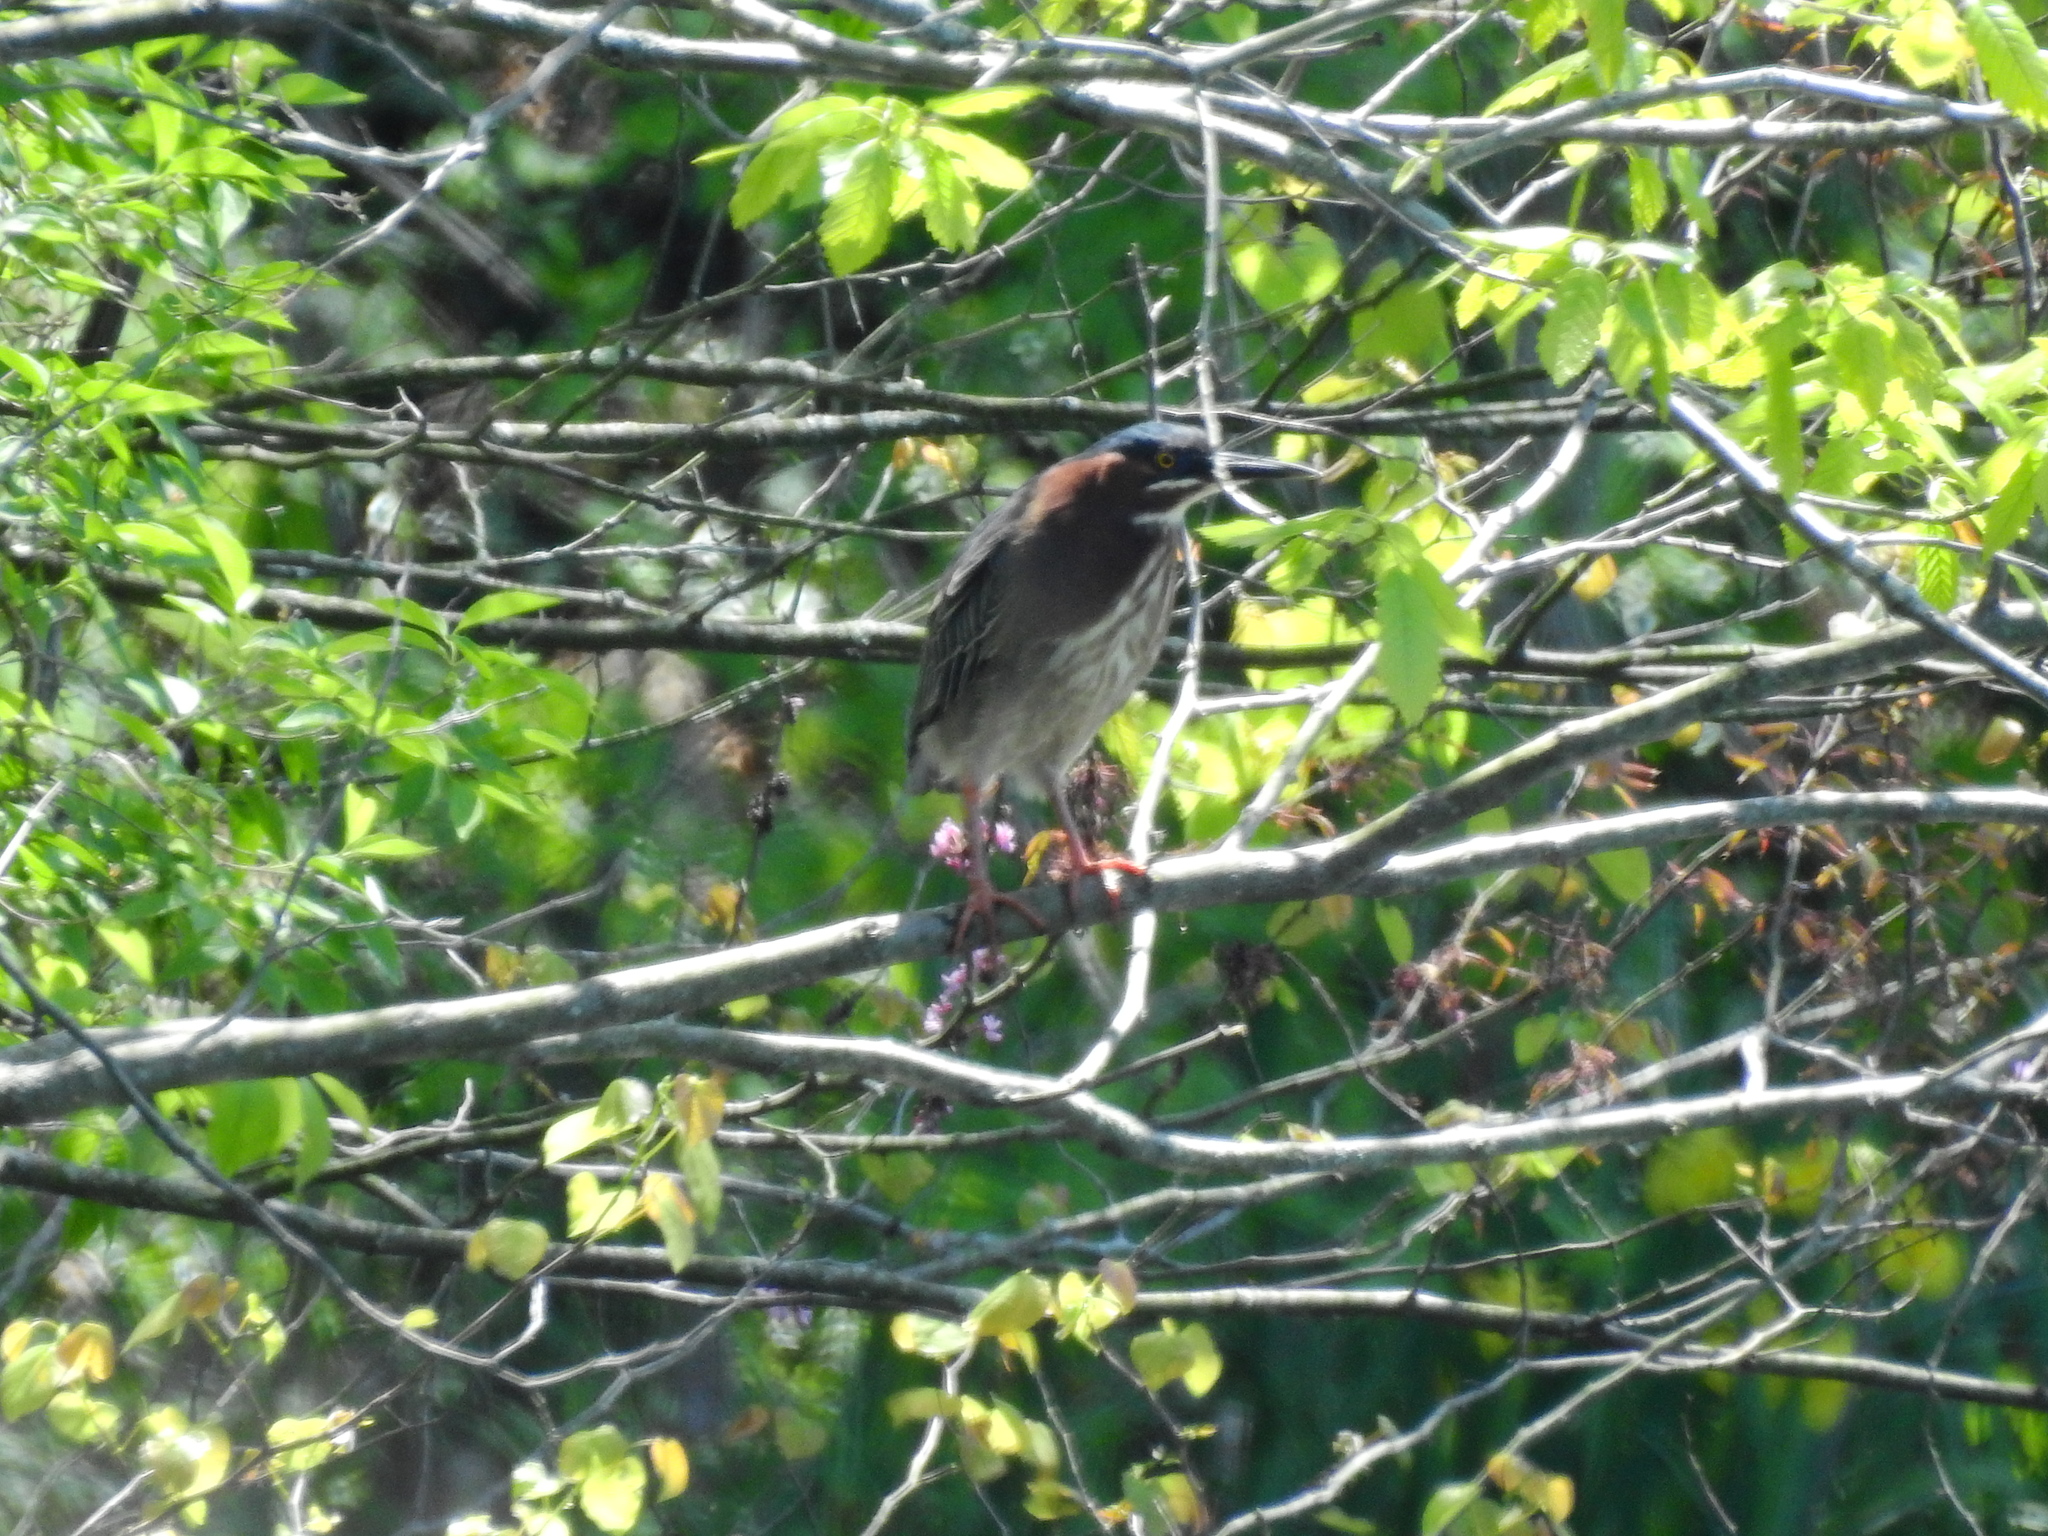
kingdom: Animalia
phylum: Chordata
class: Aves
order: Pelecaniformes
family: Ardeidae
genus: Butorides
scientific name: Butorides virescens
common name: Green heron
